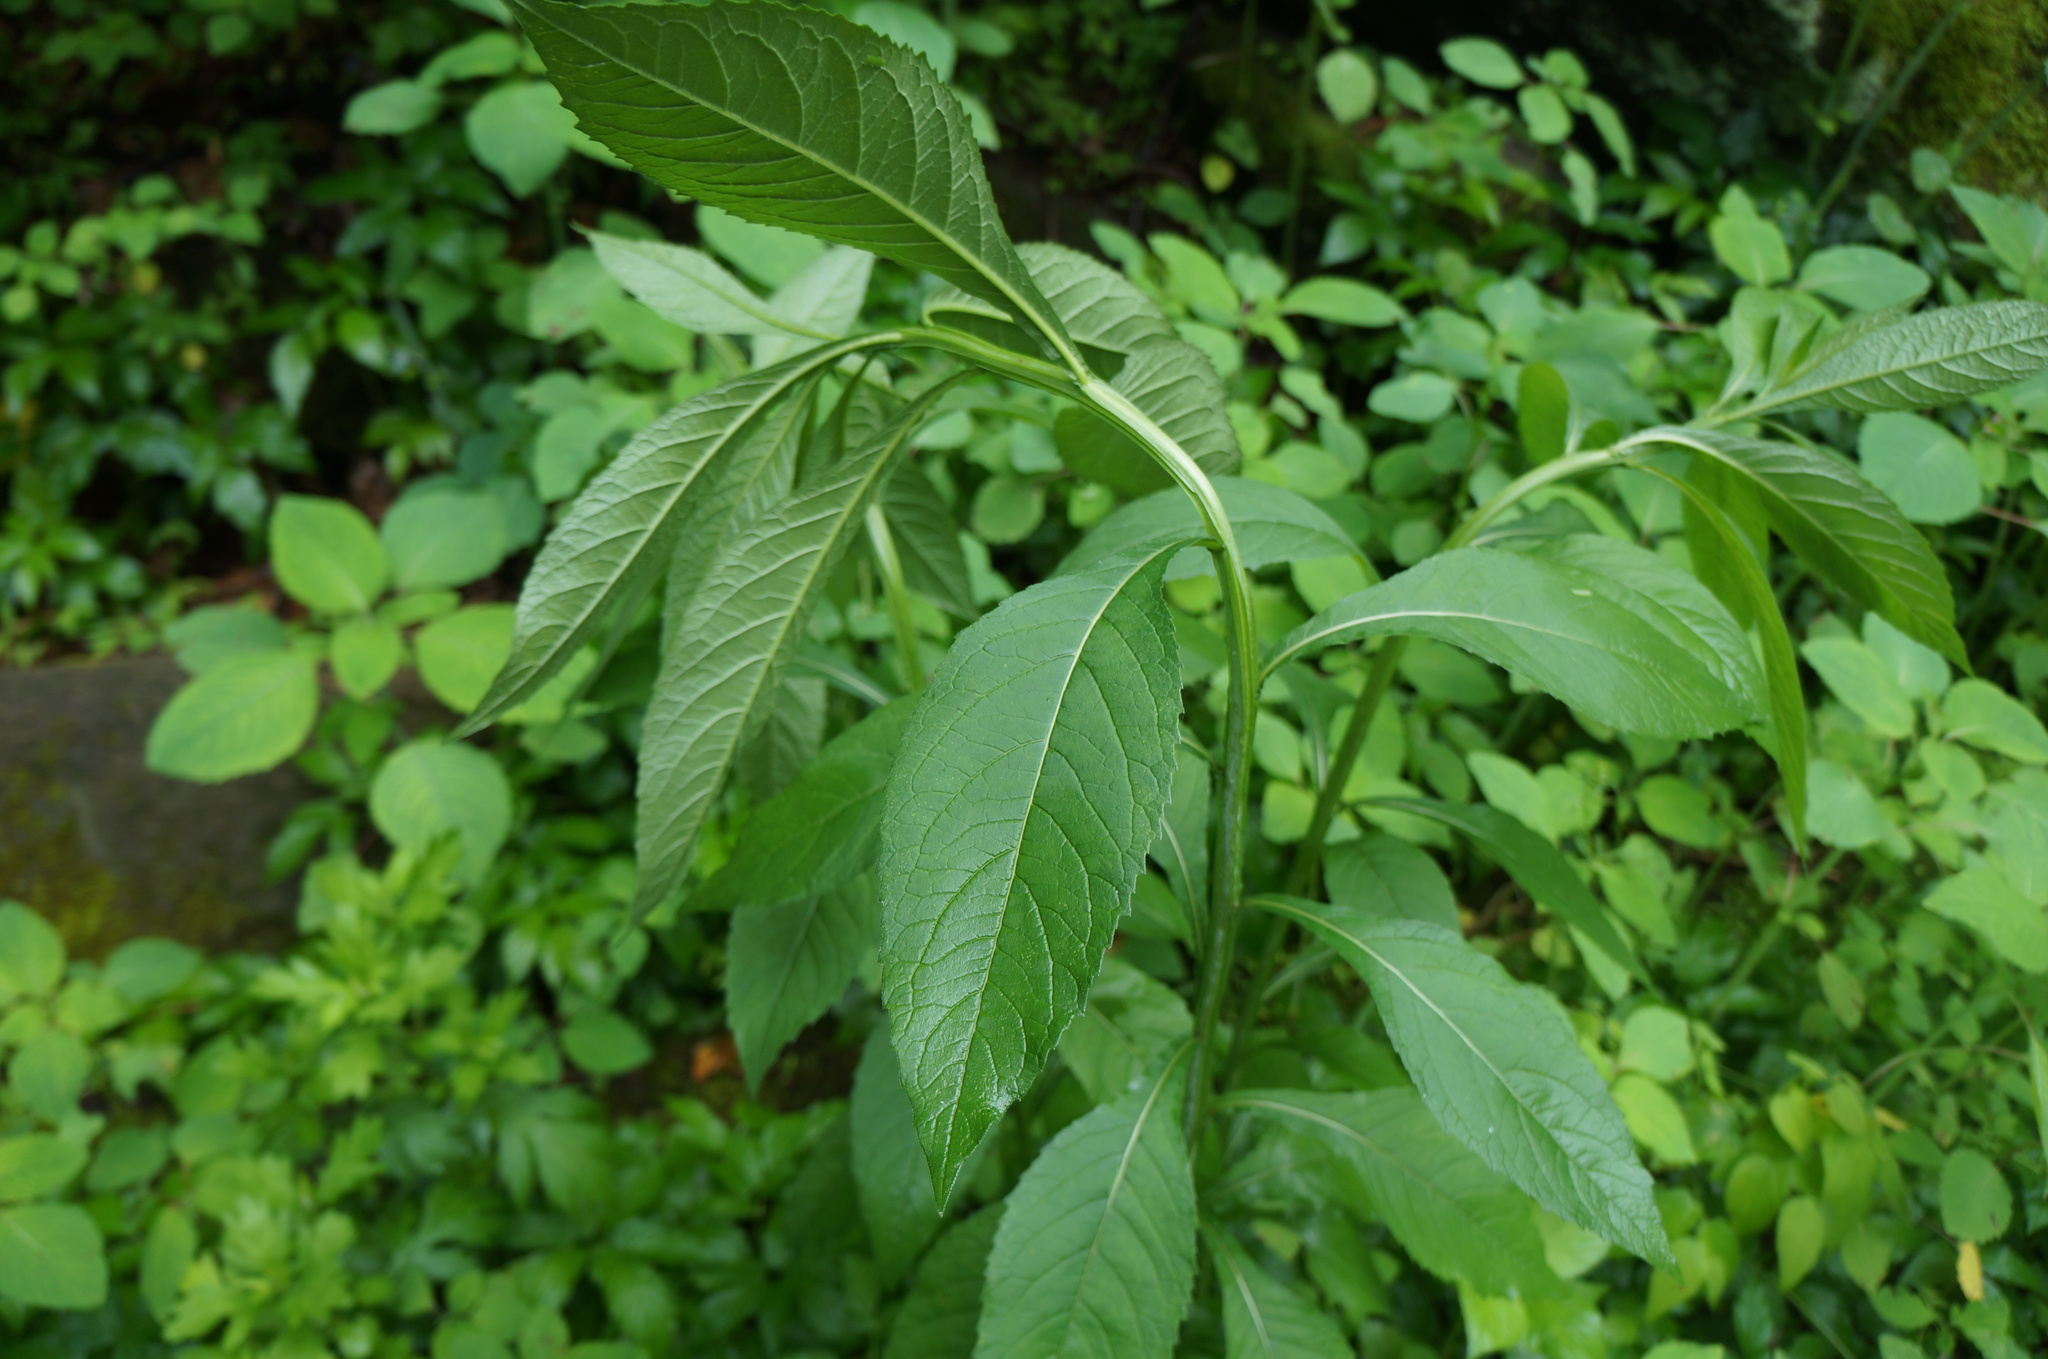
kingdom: Plantae
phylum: Tracheophyta
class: Magnoliopsida
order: Asterales
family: Asteraceae
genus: Verbesina
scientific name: Verbesina alternifolia
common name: Wingstem
